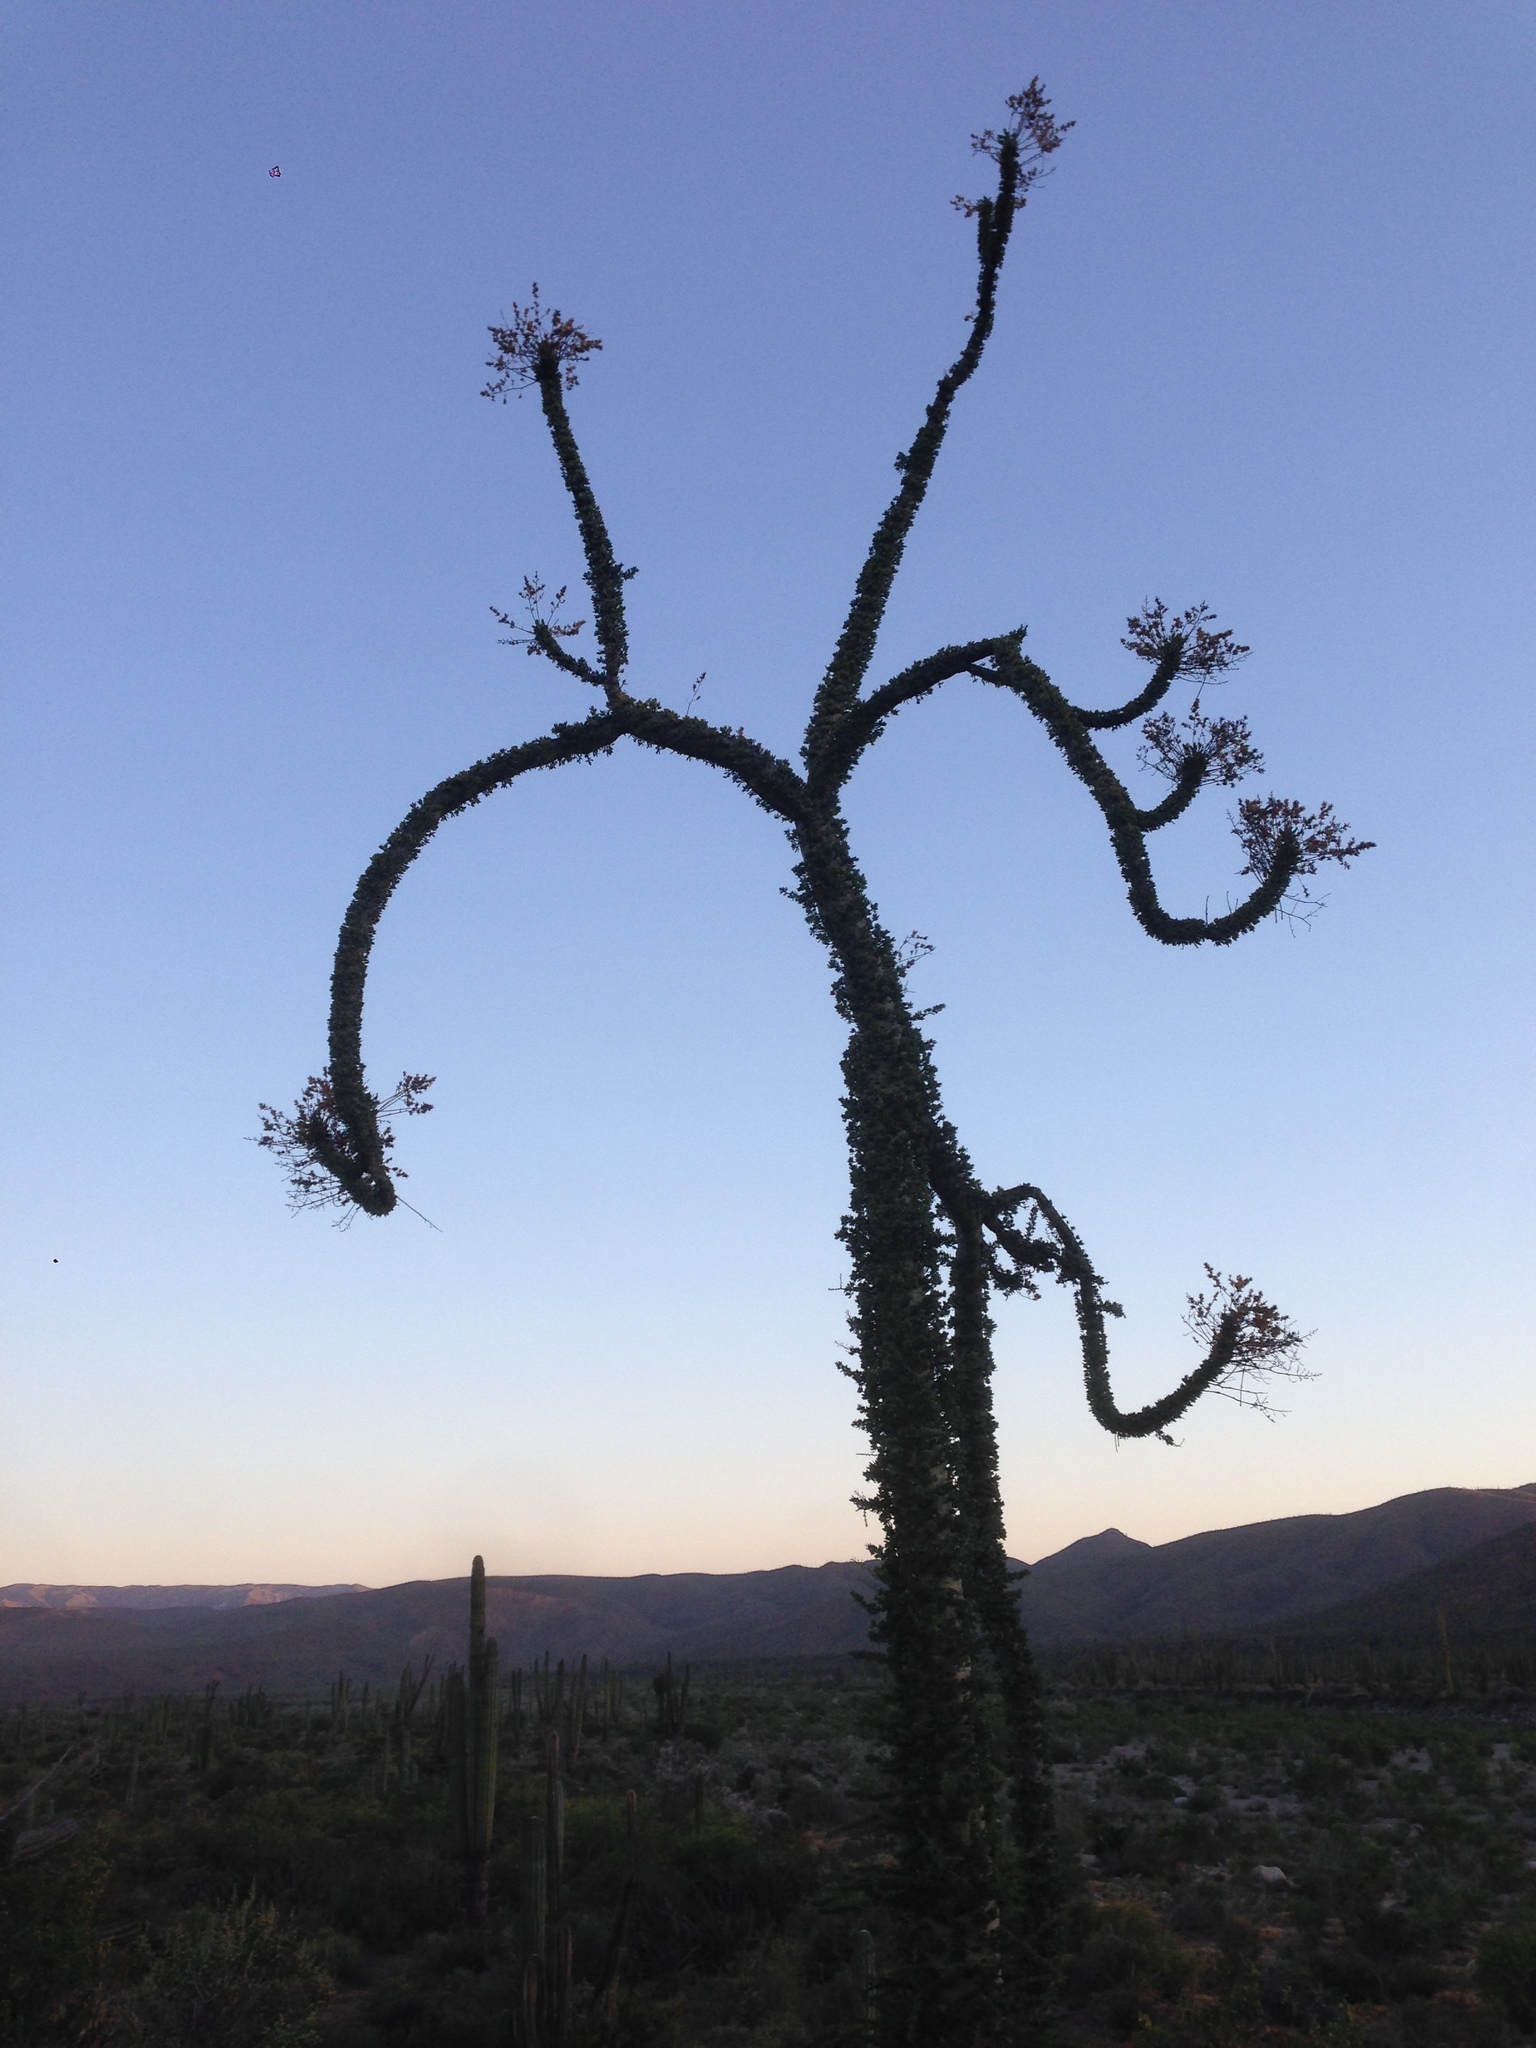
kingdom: Plantae
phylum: Tracheophyta
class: Magnoliopsida
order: Ericales
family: Fouquieriaceae
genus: Fouquieria
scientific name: Fouquieria columnaris
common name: Boojumtree
